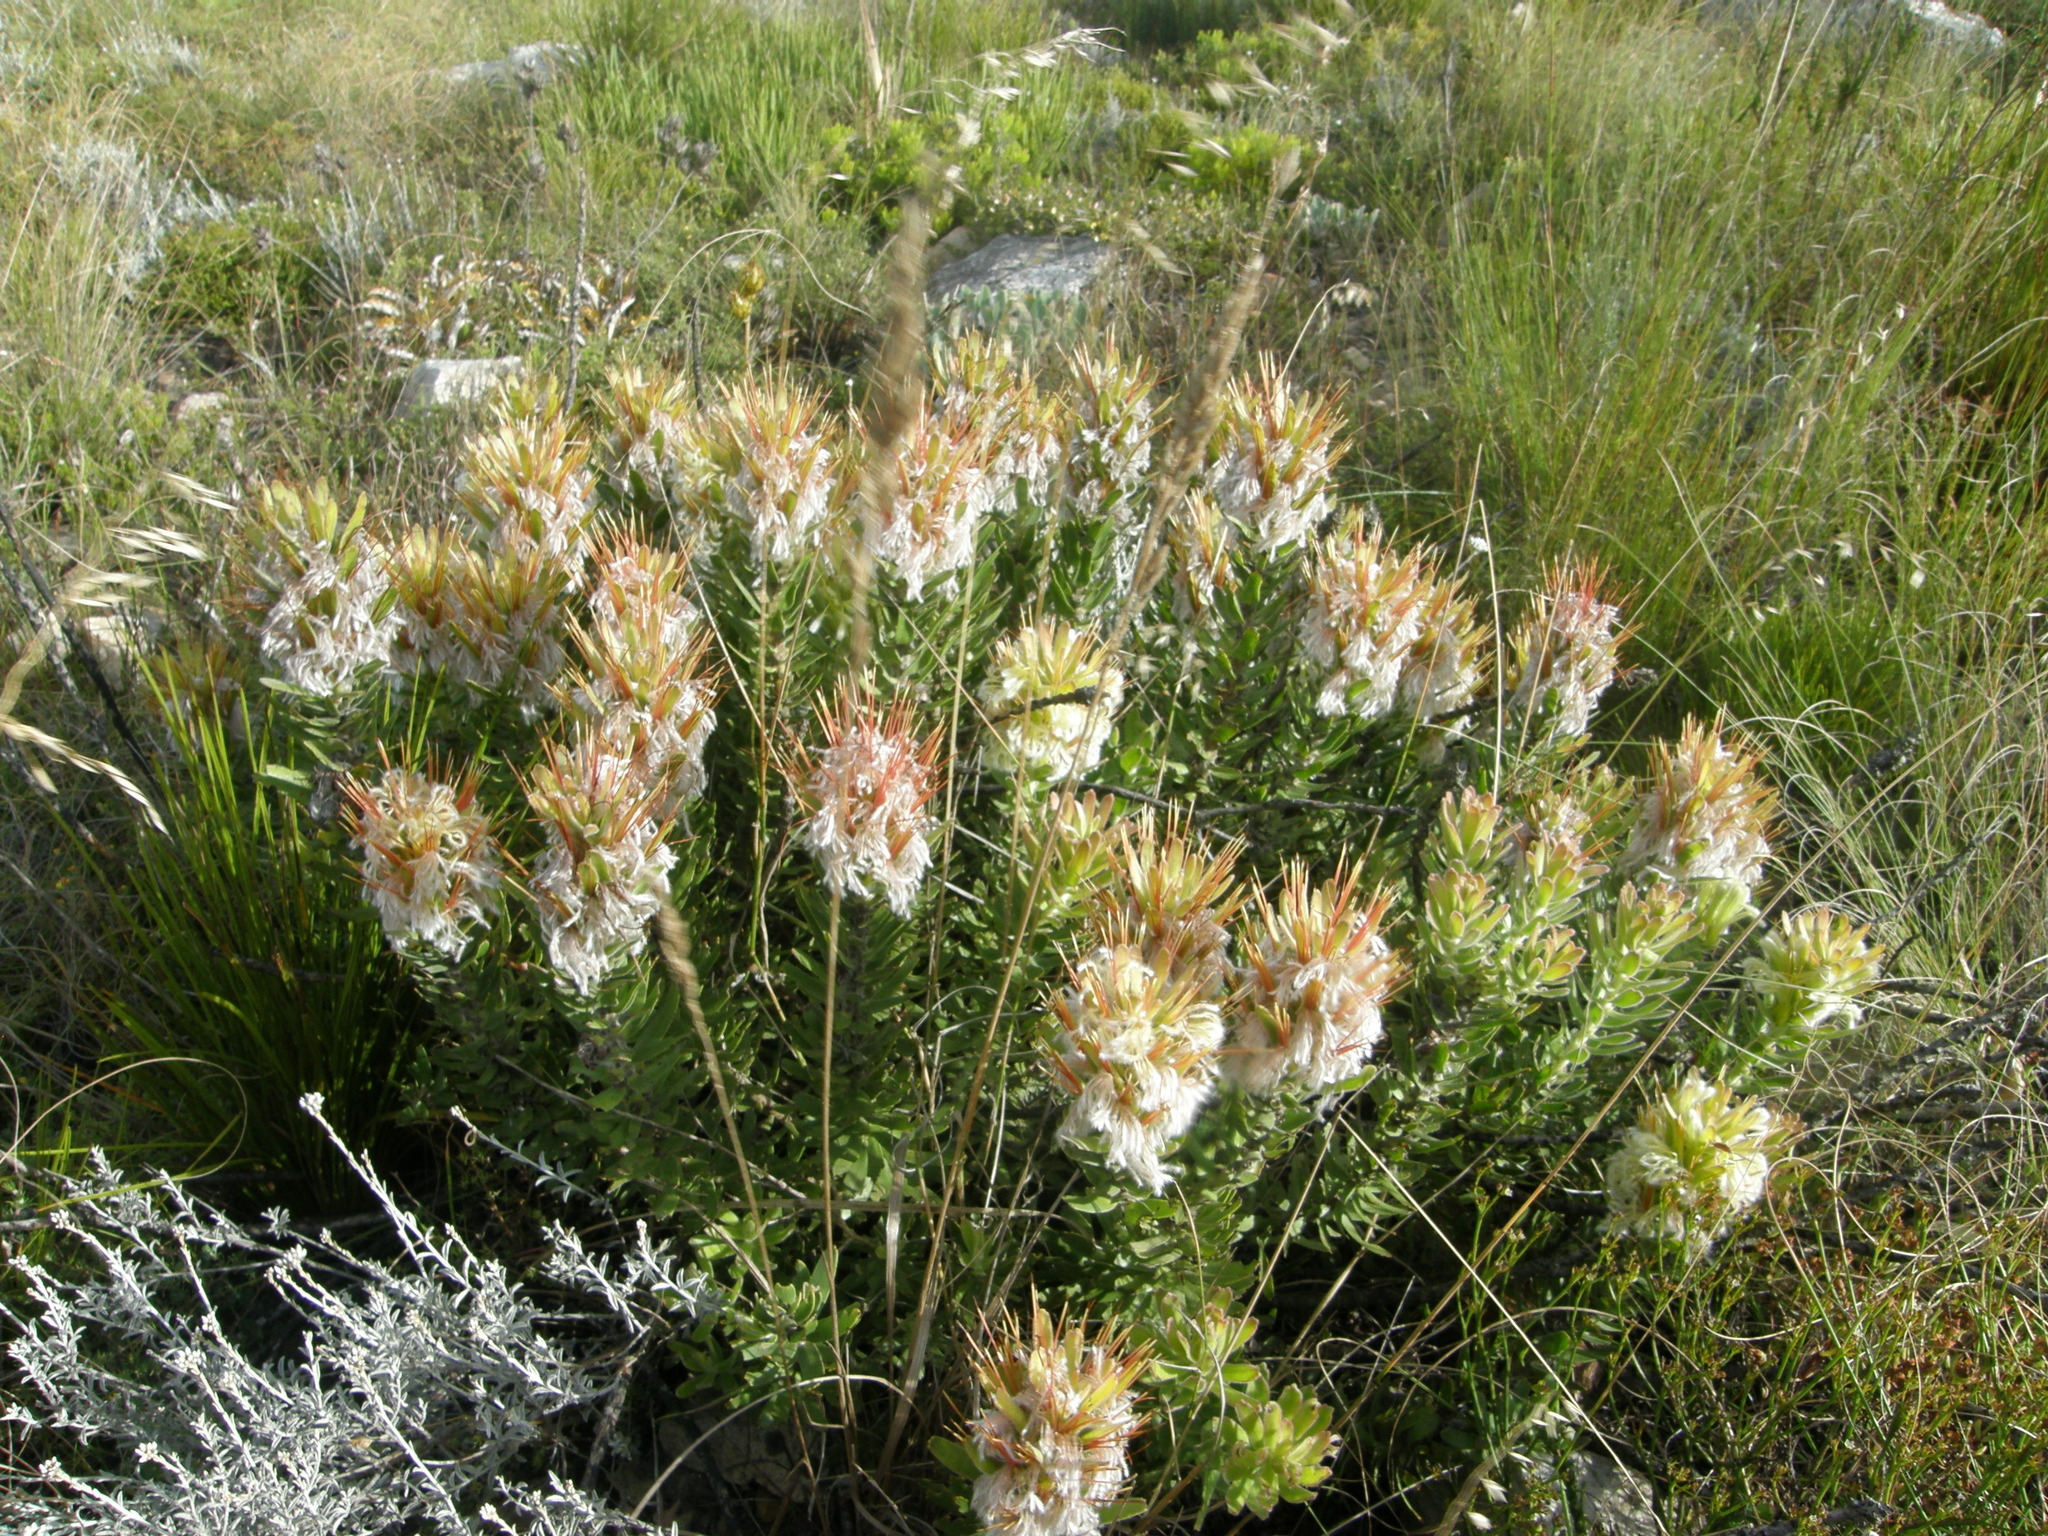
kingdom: Plantae
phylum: Tracheophyta
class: Magnoliopsida
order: Proteales
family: Proteaceae
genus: Mimetes
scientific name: Mimetes cucullatus
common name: Common pagoda
